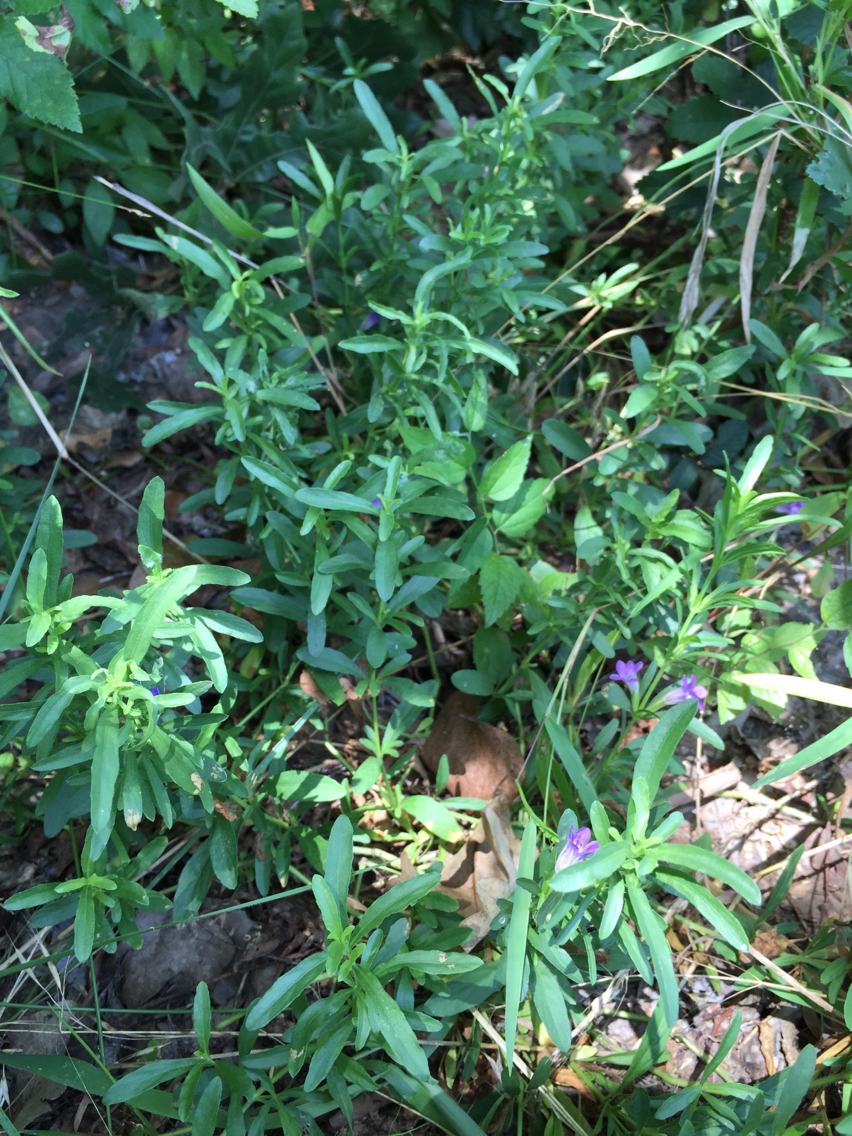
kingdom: Plantae
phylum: Tracheophyta
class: Magnoliopsida
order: Lamiales
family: Acanthaceae
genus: Dyschoriste
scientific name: Dyschoriste linearis
